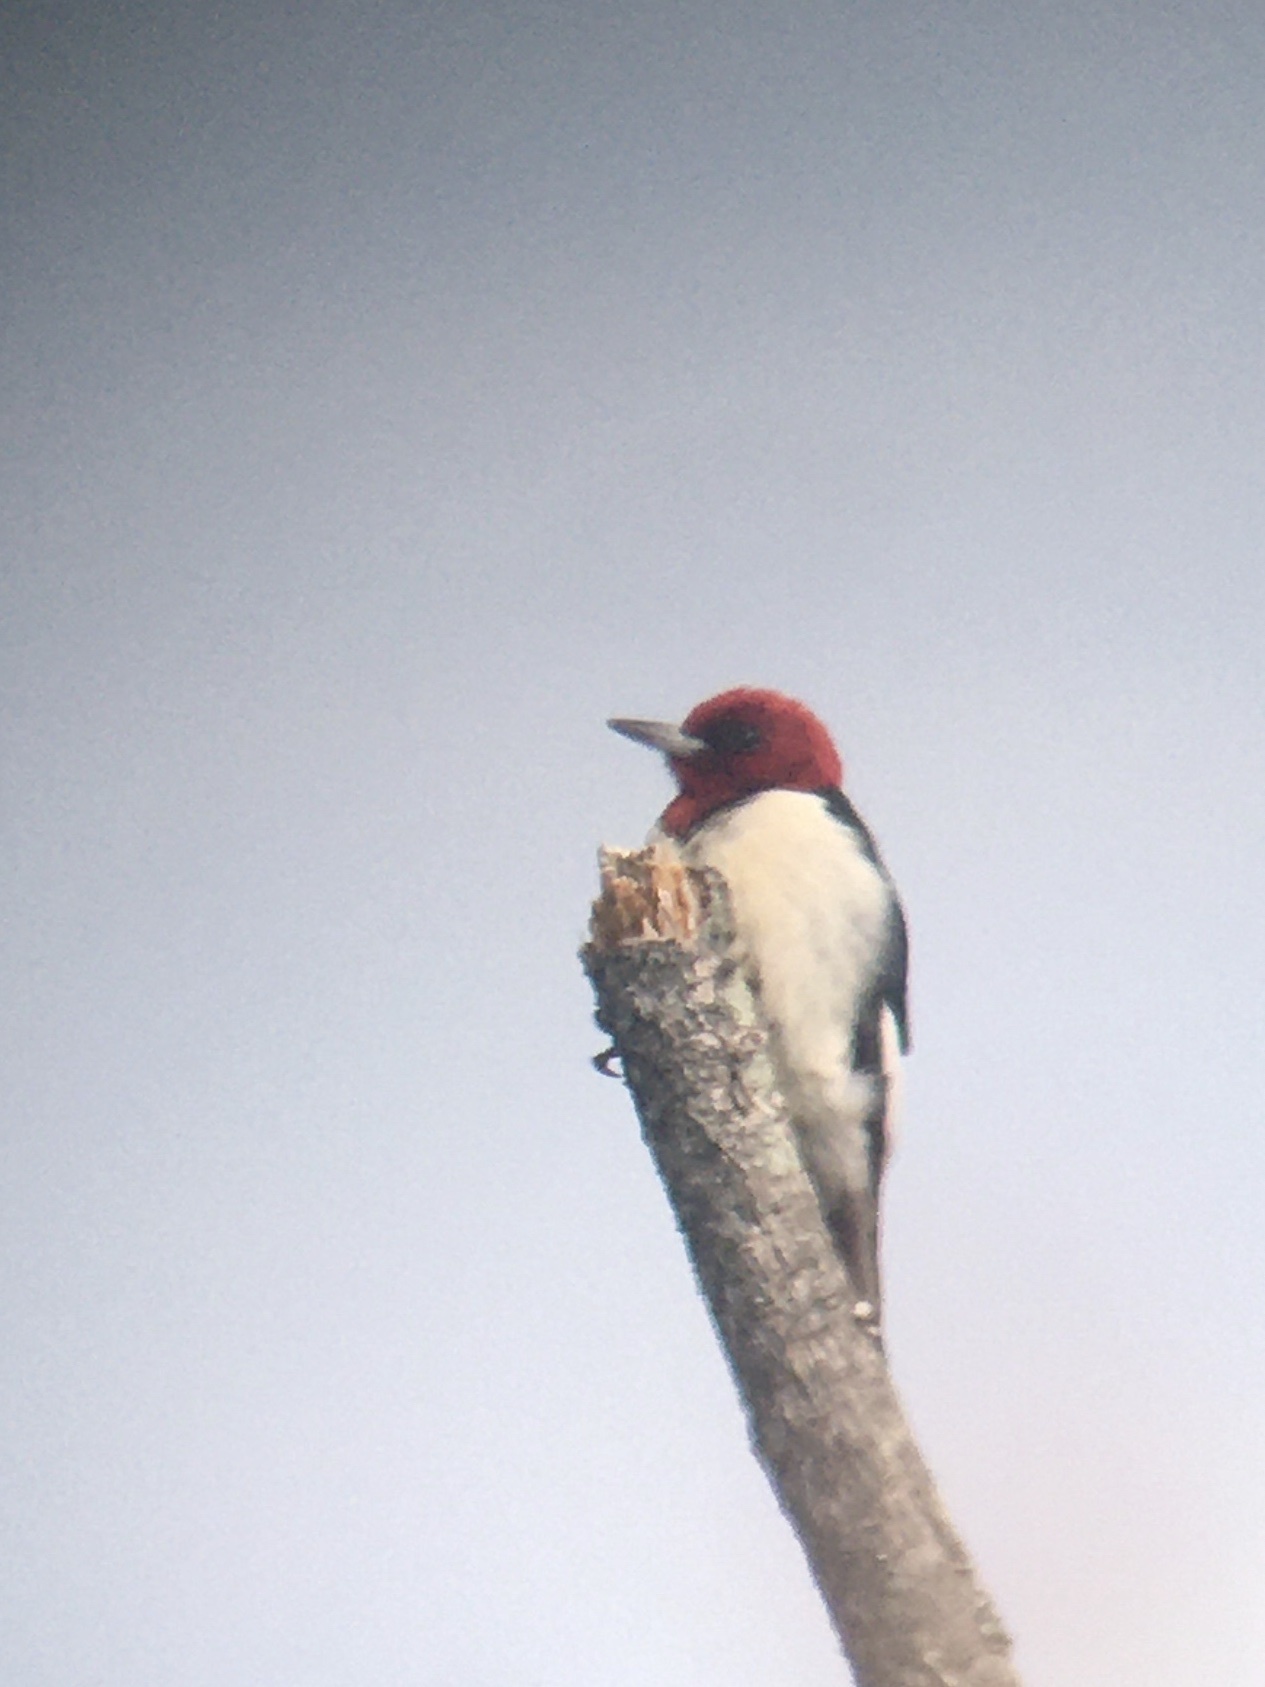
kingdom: Animalia
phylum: Chordata
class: Aves
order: Piciformes
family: Picidae
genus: Melanerpes
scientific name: Melanerpes erythrocephalus
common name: Red-headed woodpecker
